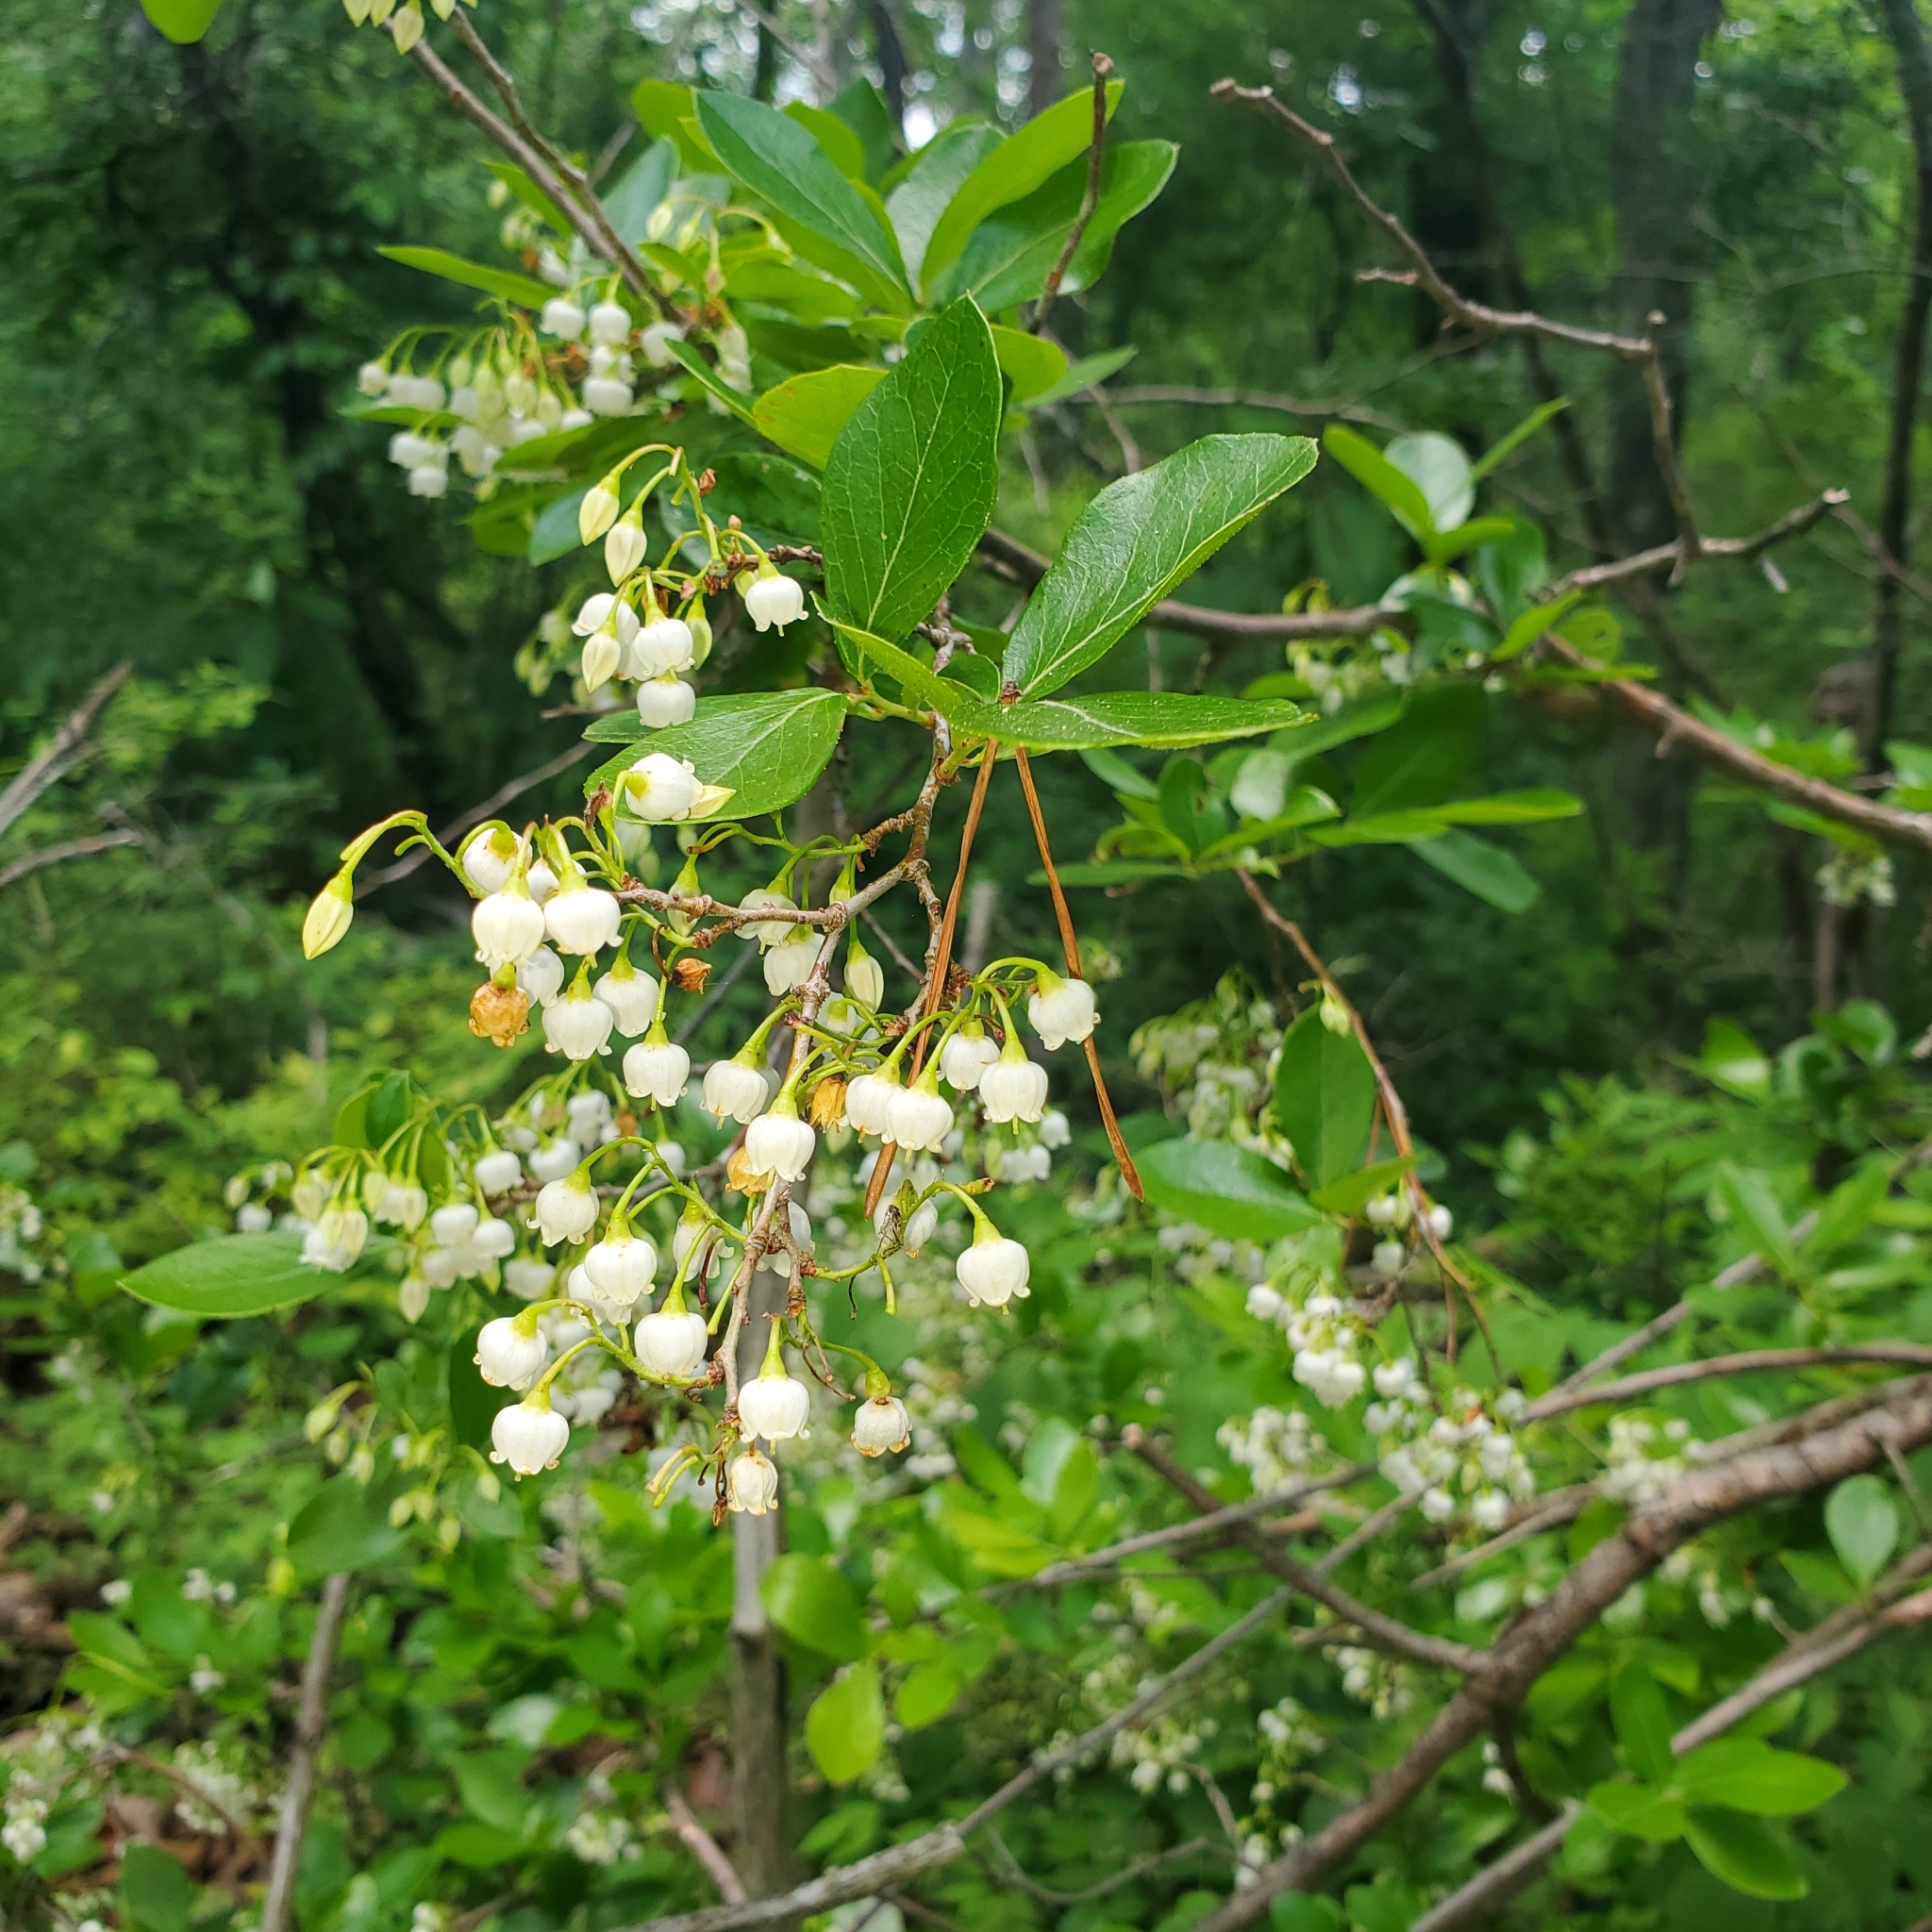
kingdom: Plantae
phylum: Tracheophyta
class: Magnoliopsida
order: Ericales
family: Ericaceae
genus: Vaccinium
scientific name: Vaccinium arboreum
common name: Farkleberry
